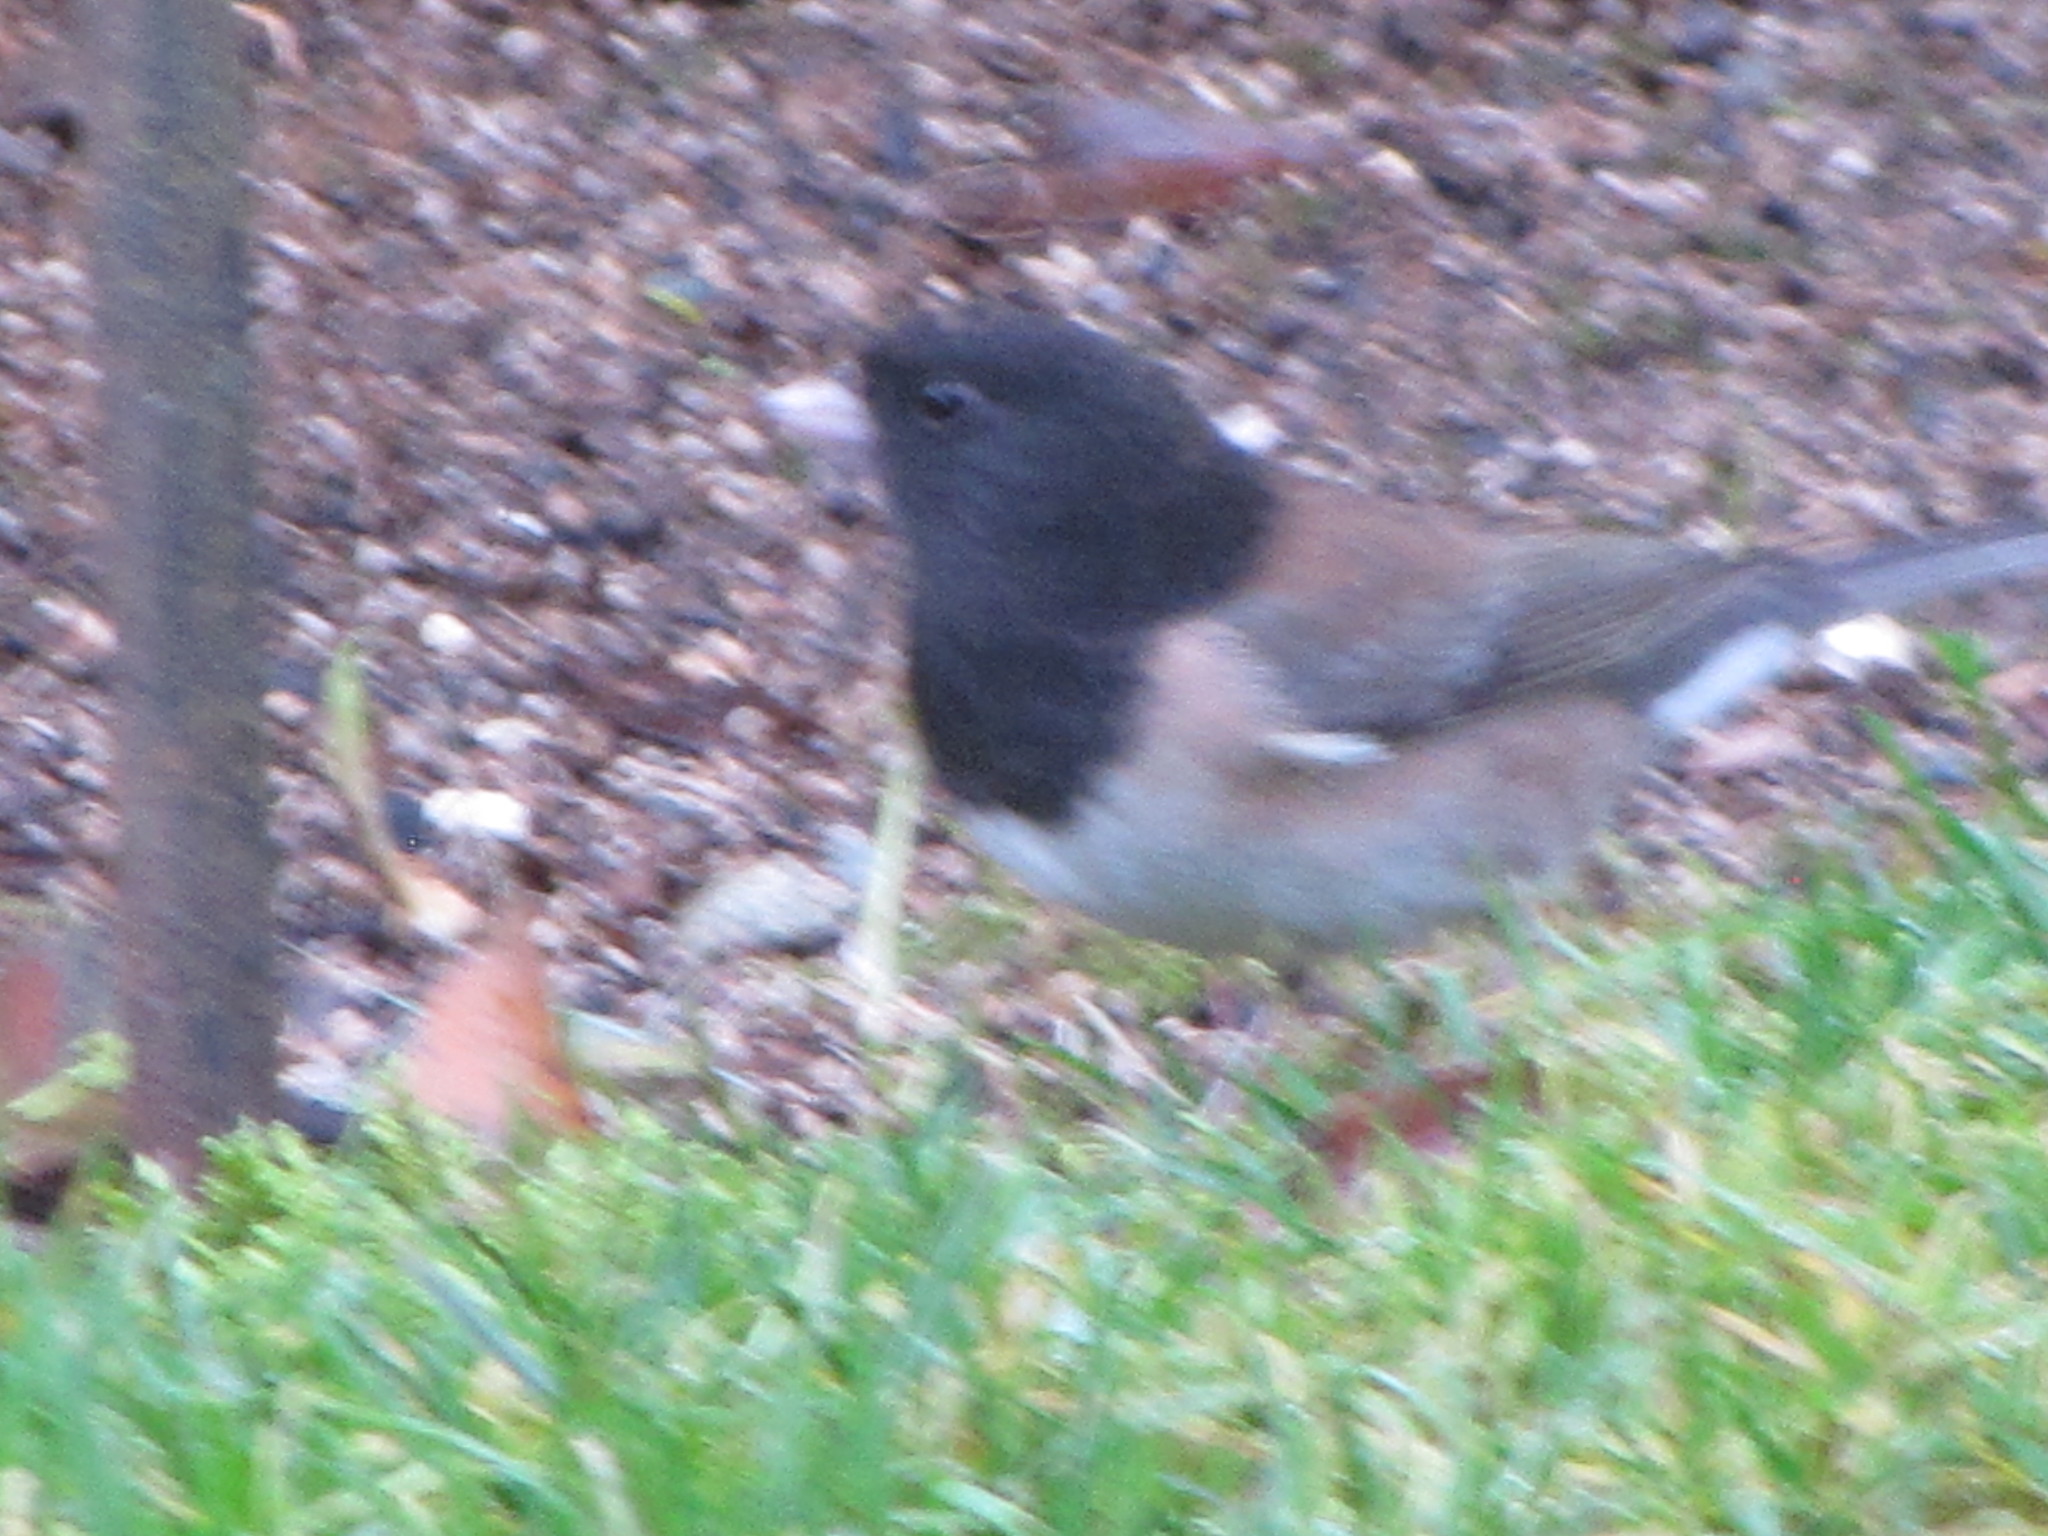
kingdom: Animalia
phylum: Chordata
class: Aves
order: Passeriformes
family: Passerellidae
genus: Junco
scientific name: Junco hyemalis
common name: Dark-eyed junco
